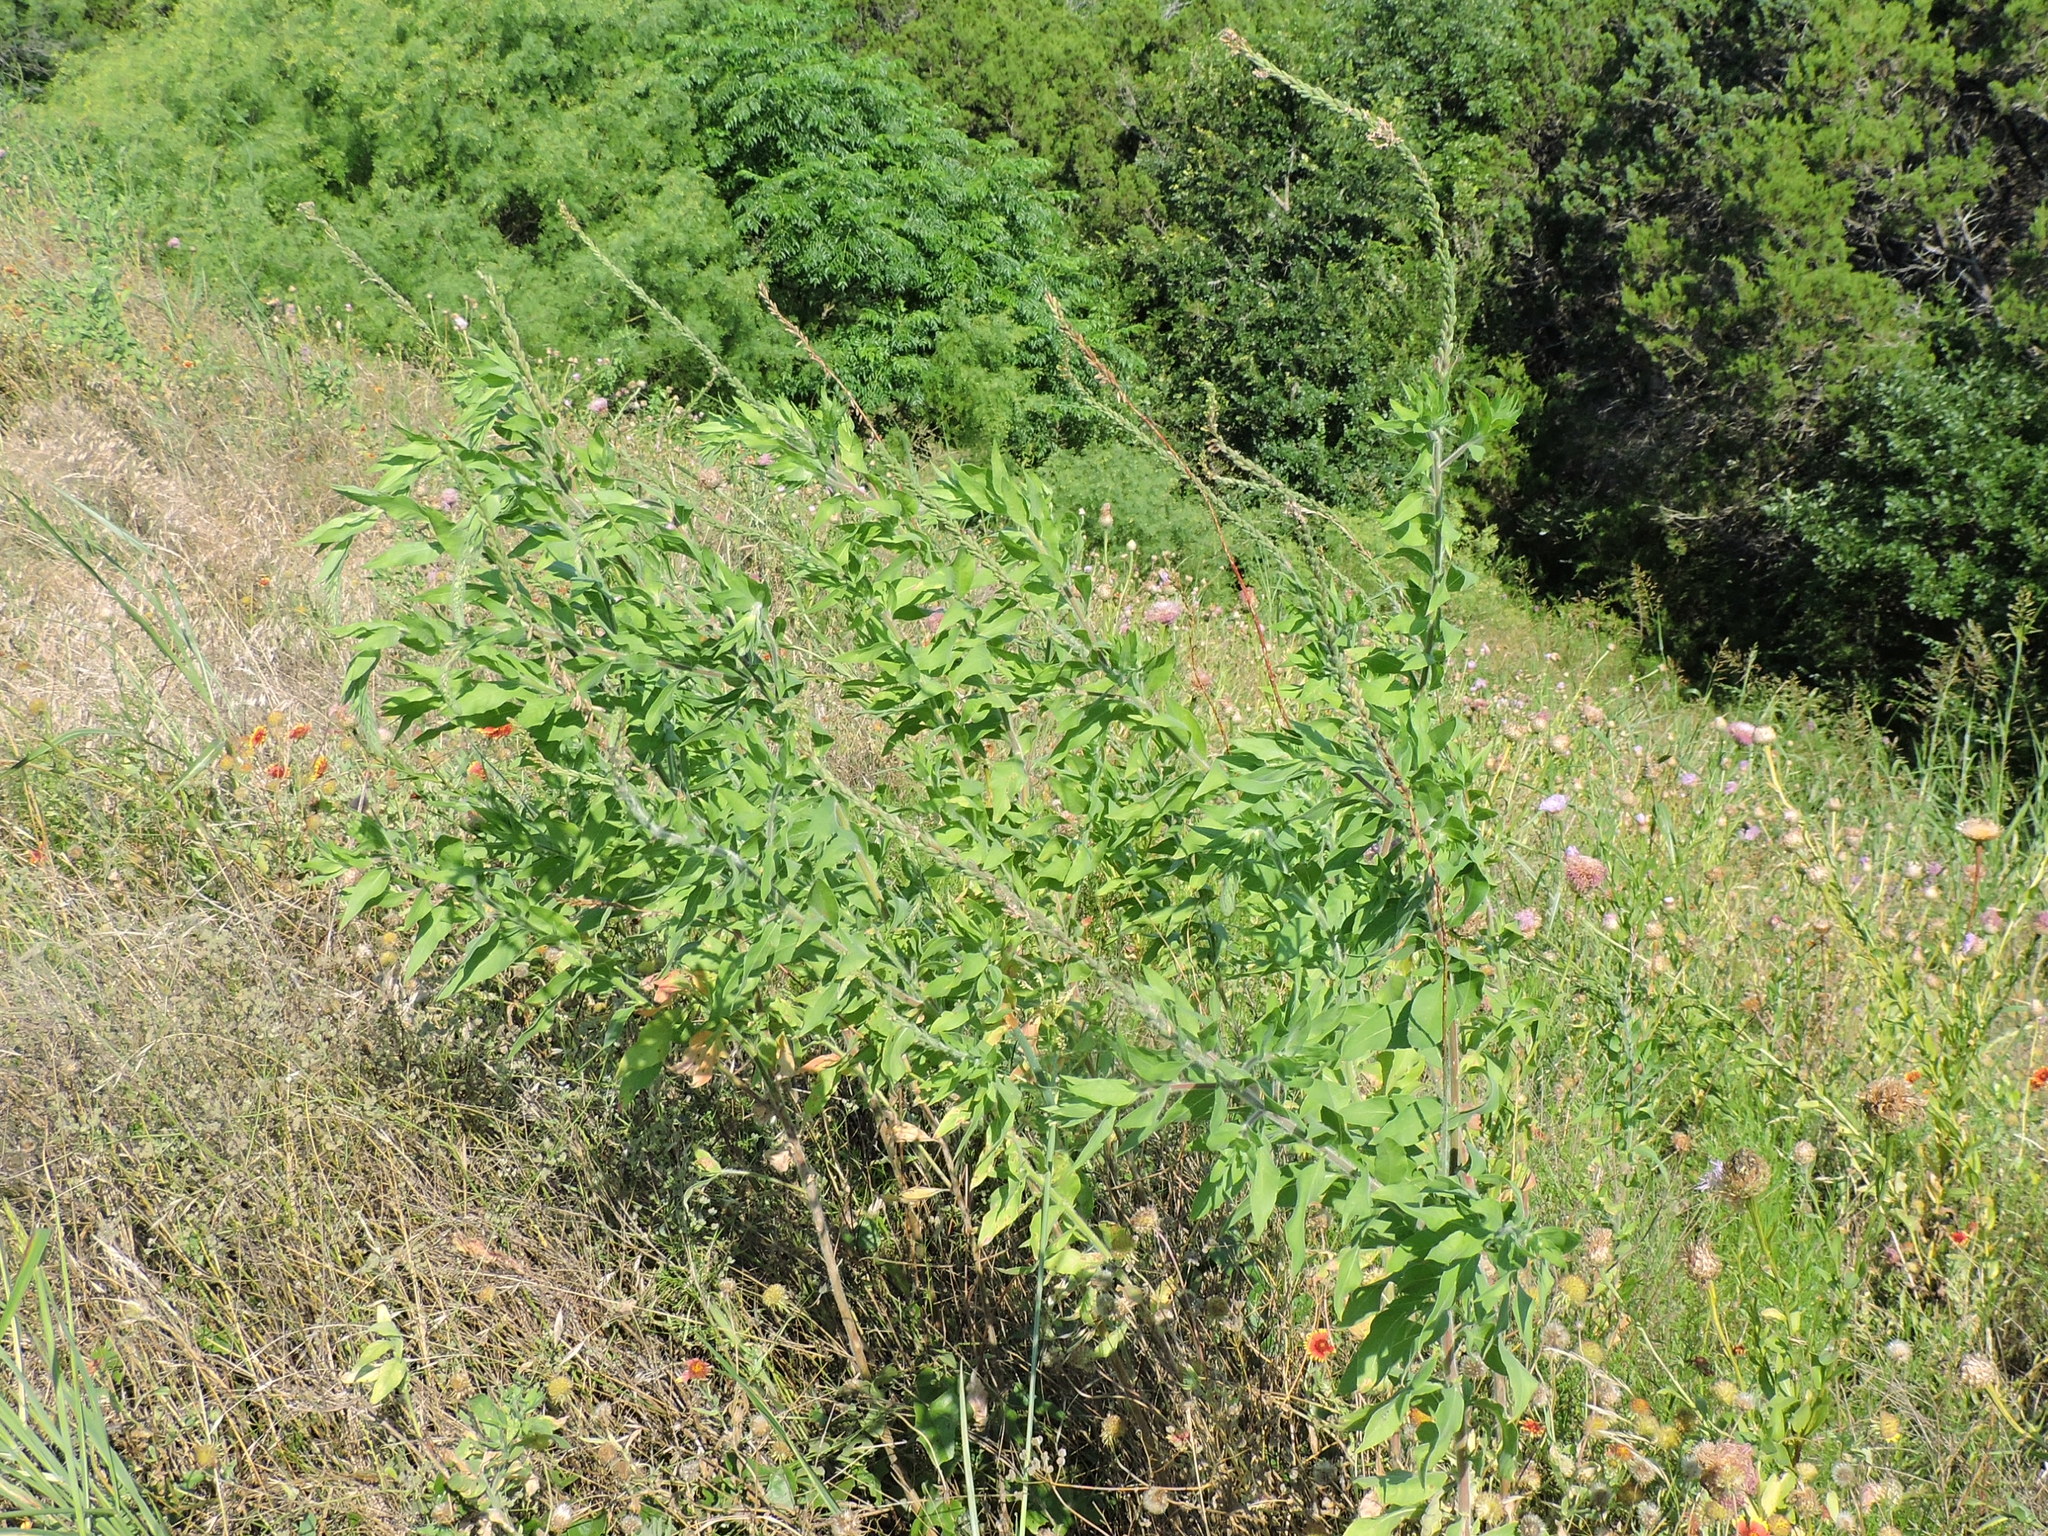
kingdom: Plantae
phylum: Tracheophyta
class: Magnoliopsida
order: Myrtales
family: Onagraceae
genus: Oenothera
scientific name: Oenothera curtiflora
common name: Velvetweed
